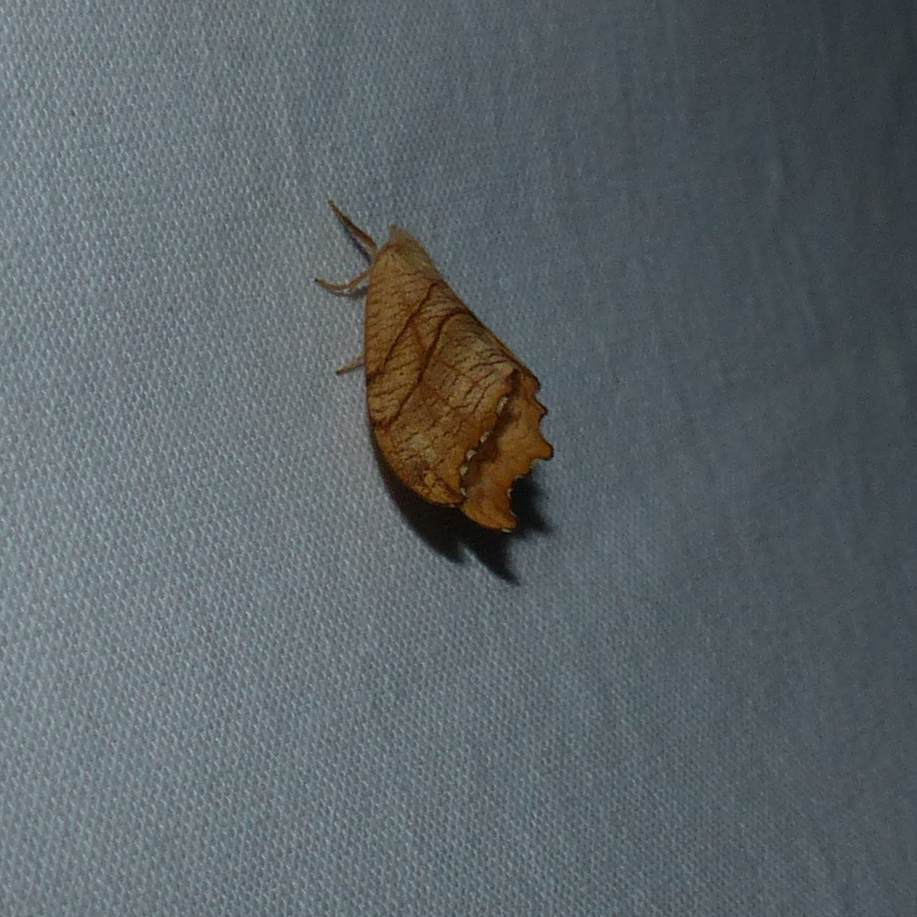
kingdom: Animalia
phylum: Arthropoda
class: Insecta
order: Lepidoptera
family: Drepanidae
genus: Falcaria
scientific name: Falcaria bilineata
